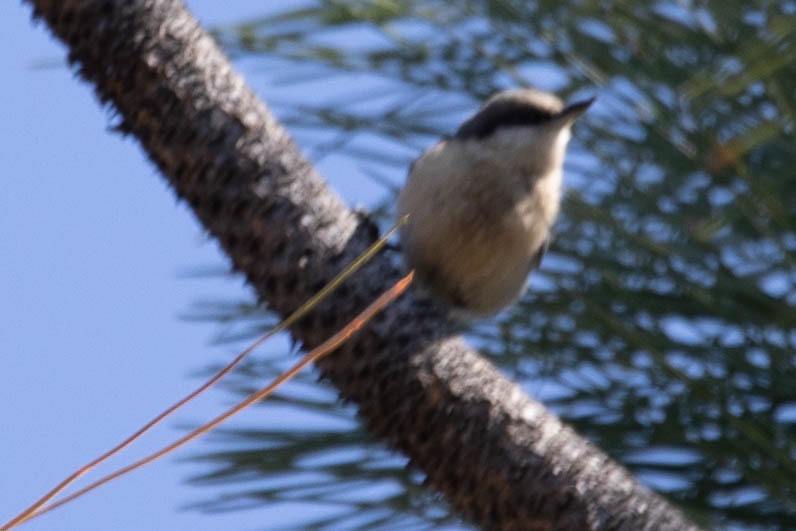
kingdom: Animalia
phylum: Chordata
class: Aves
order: Passeriformes
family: Sittidae
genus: Sitta
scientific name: Sitta pygmaea
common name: Pygmy nuthatch
